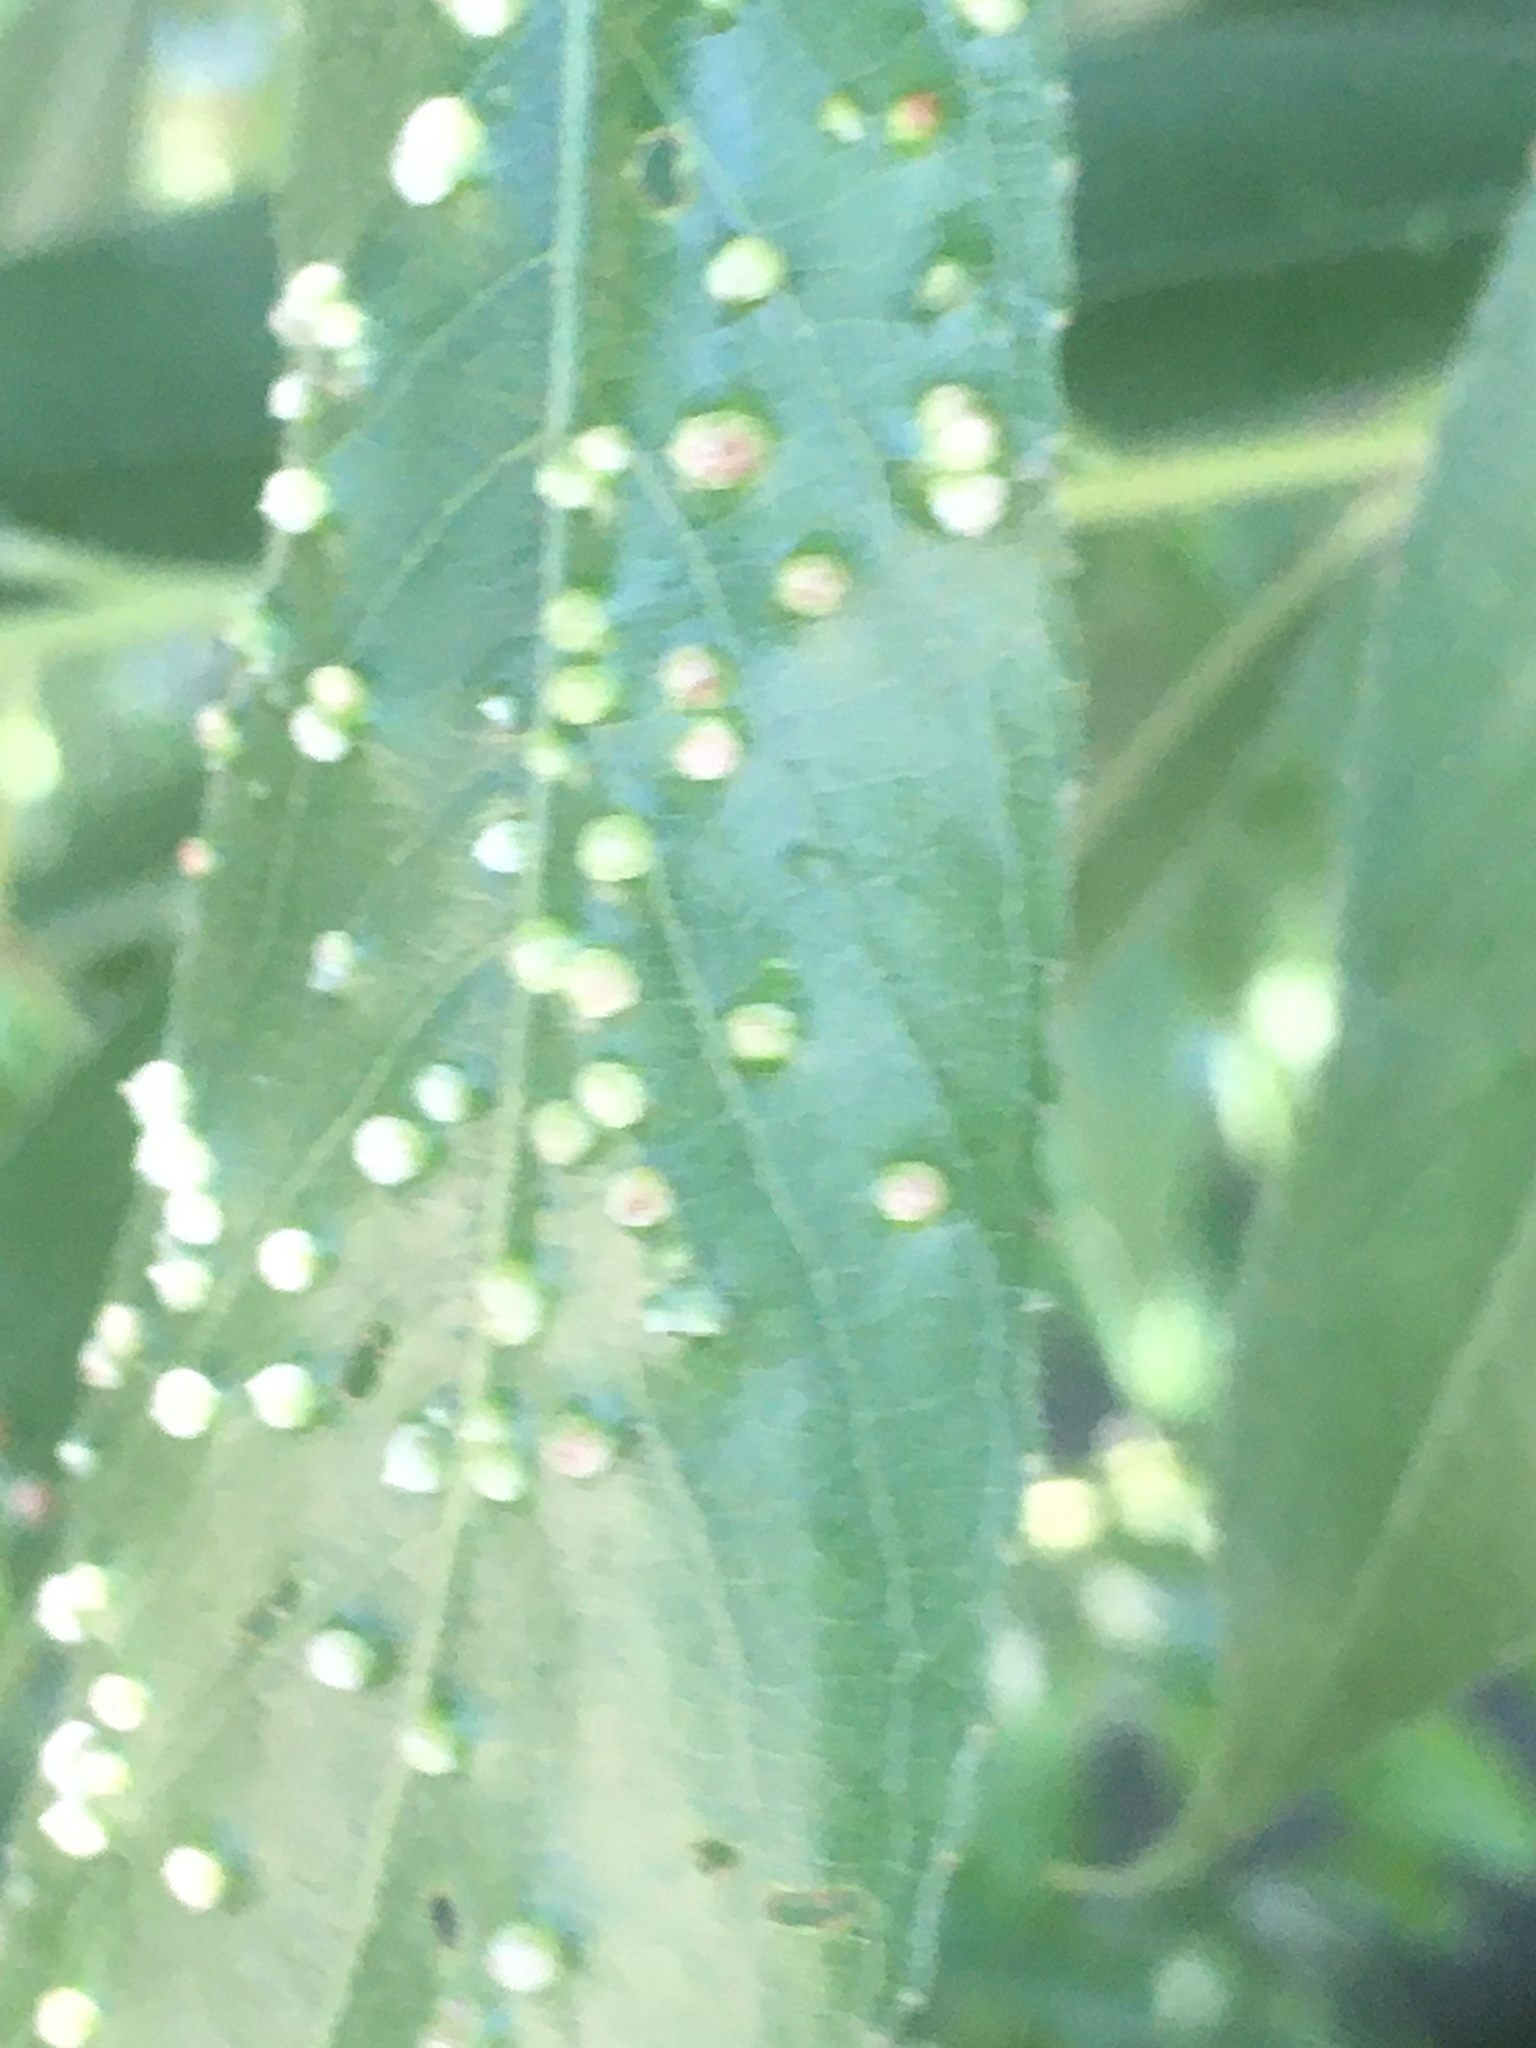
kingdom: Animalia
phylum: Arthropoda
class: Arachnida
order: Trombidiformes
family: Eriophyidae
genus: Aculus
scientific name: Aculus tetanothrix
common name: Willow bead gall mite
